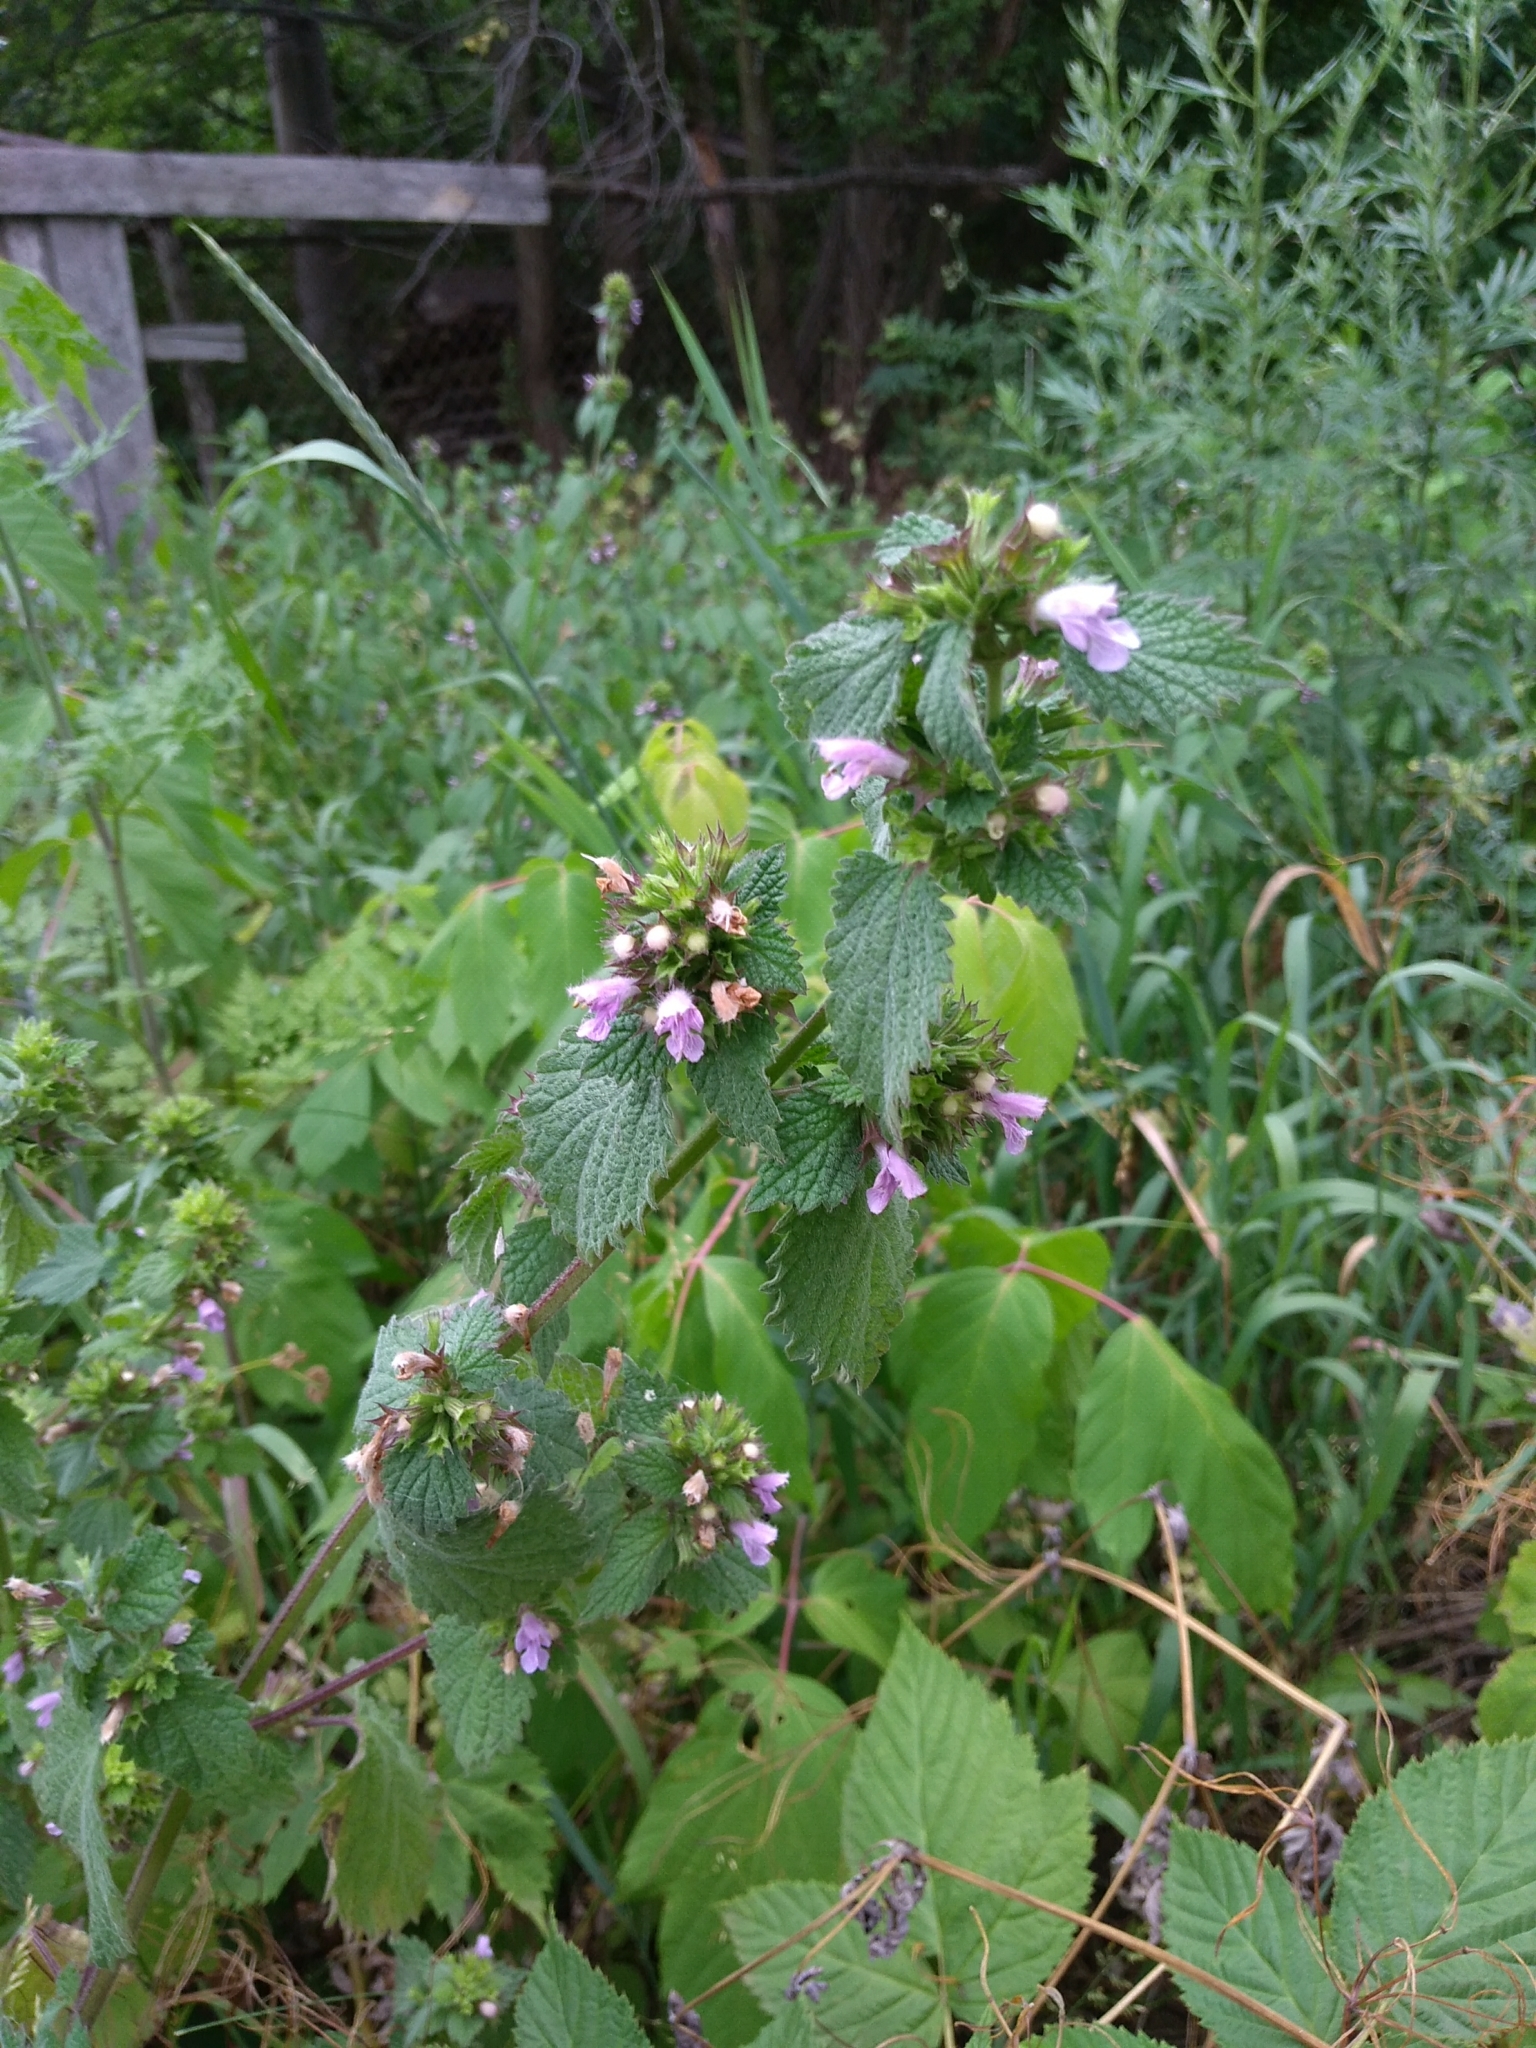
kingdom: Plantae
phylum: Tracheophyta
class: Magnoliopsida
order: Lamiales
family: Lamiaceae
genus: Ballota
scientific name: Ballota nigra
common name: Black horehound
